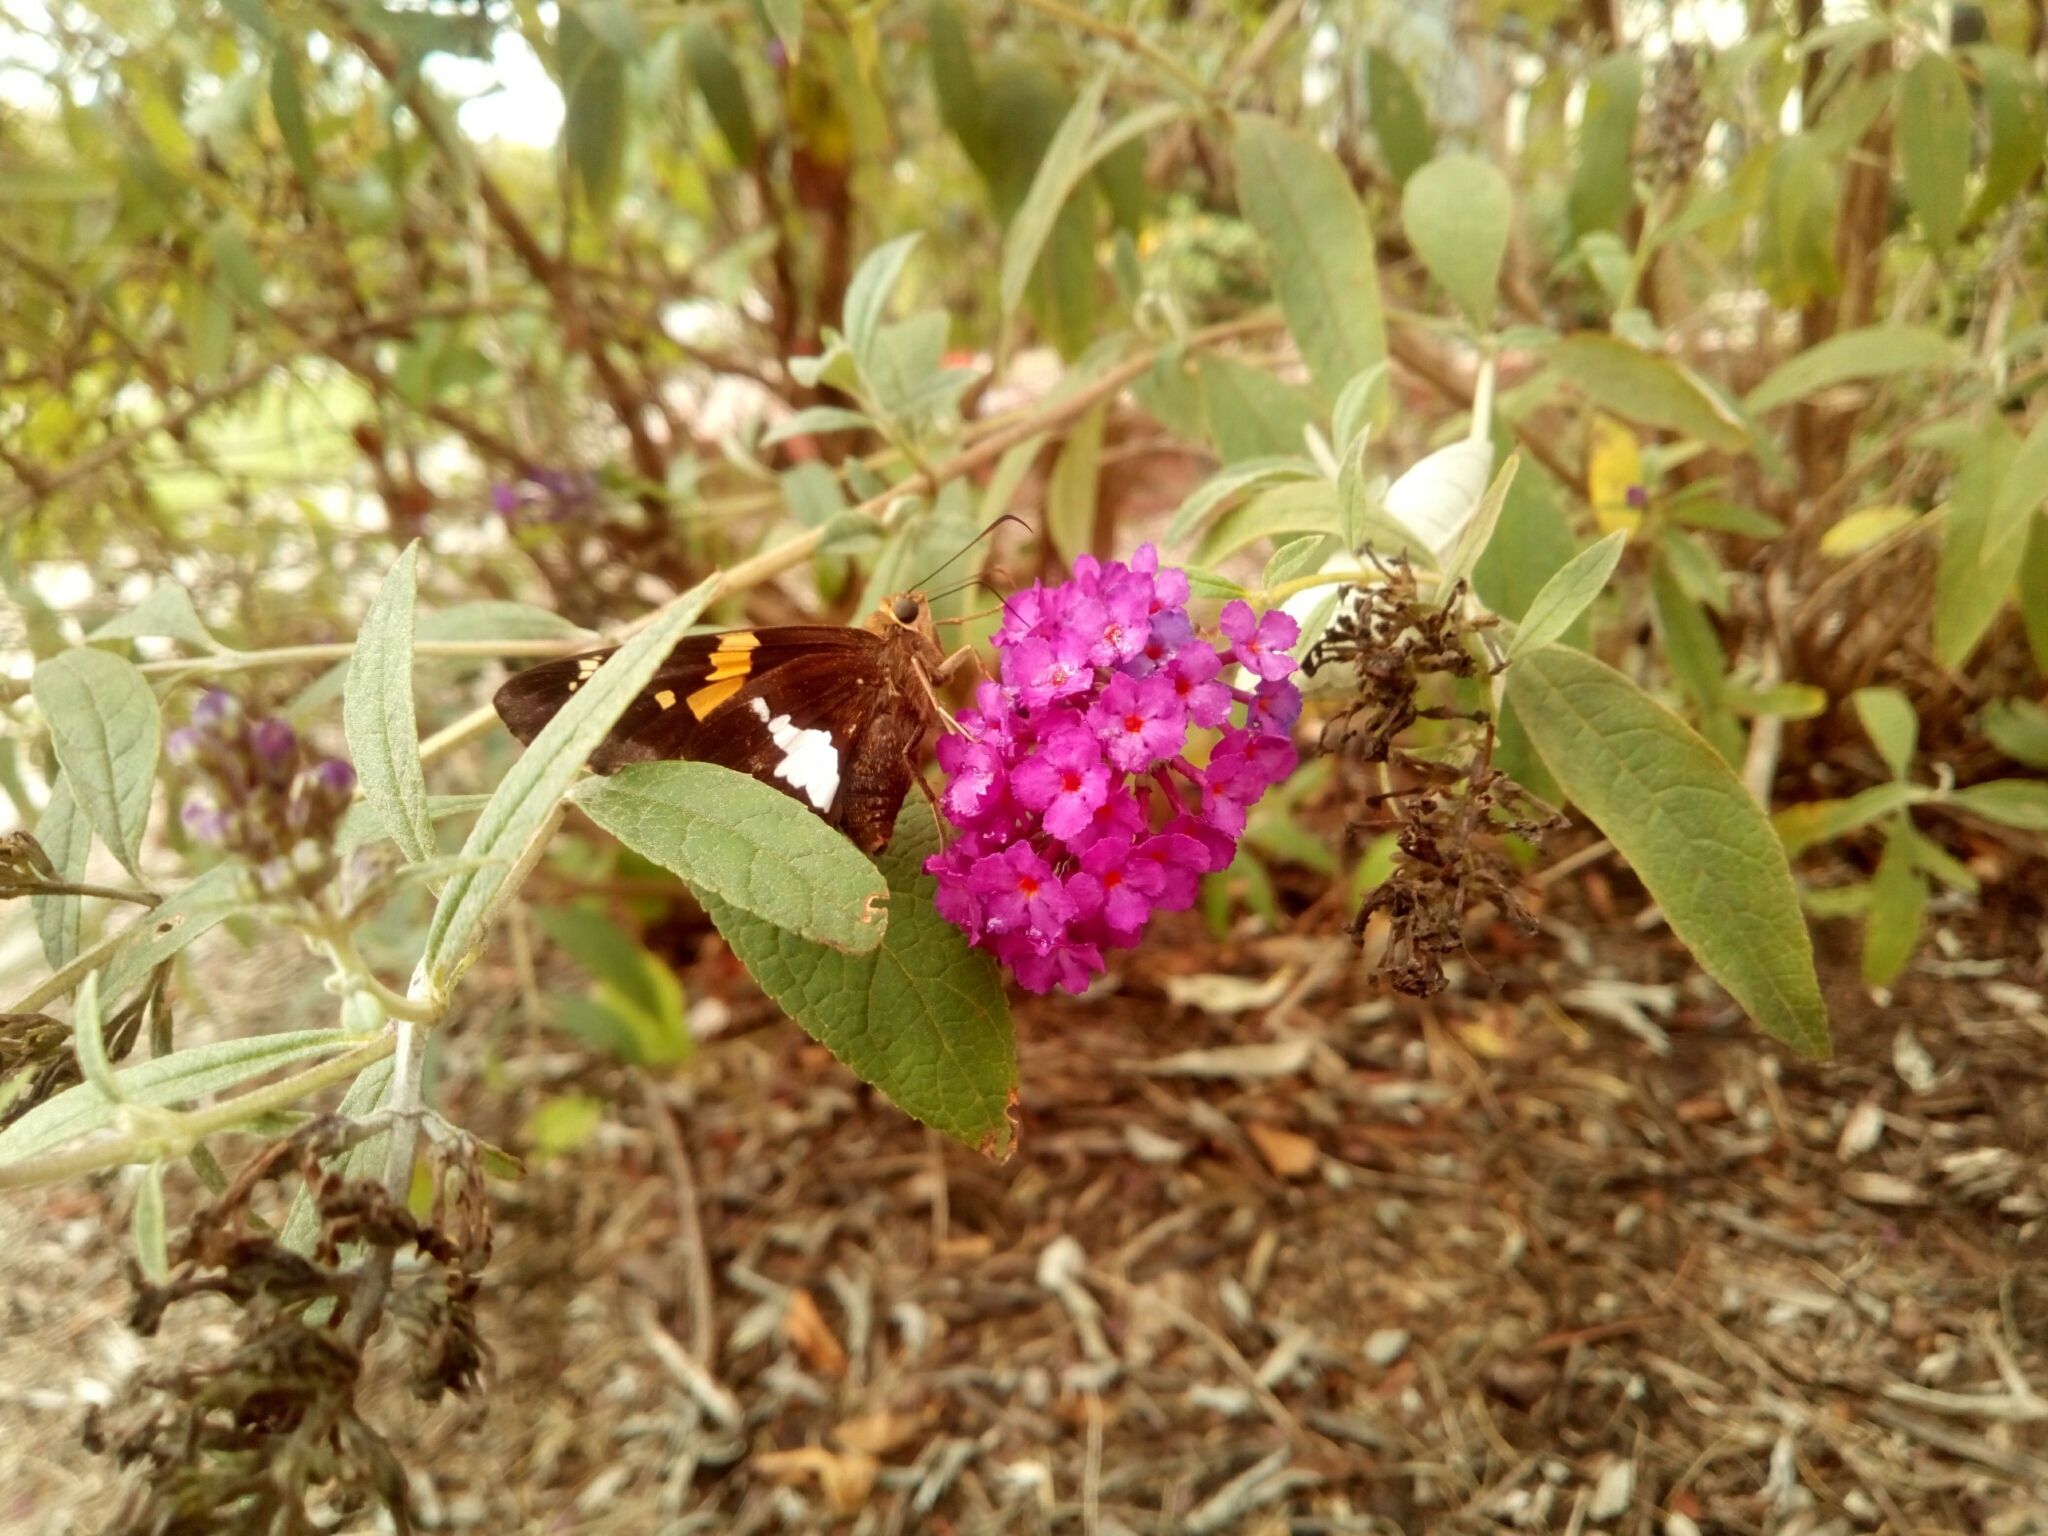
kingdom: Animalia
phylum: Arthropoda
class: Insecta
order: Lepidoptera
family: Hesperiidae
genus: Epargyreus
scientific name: Epargyreus clarus
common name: Silver-spotted skipper
